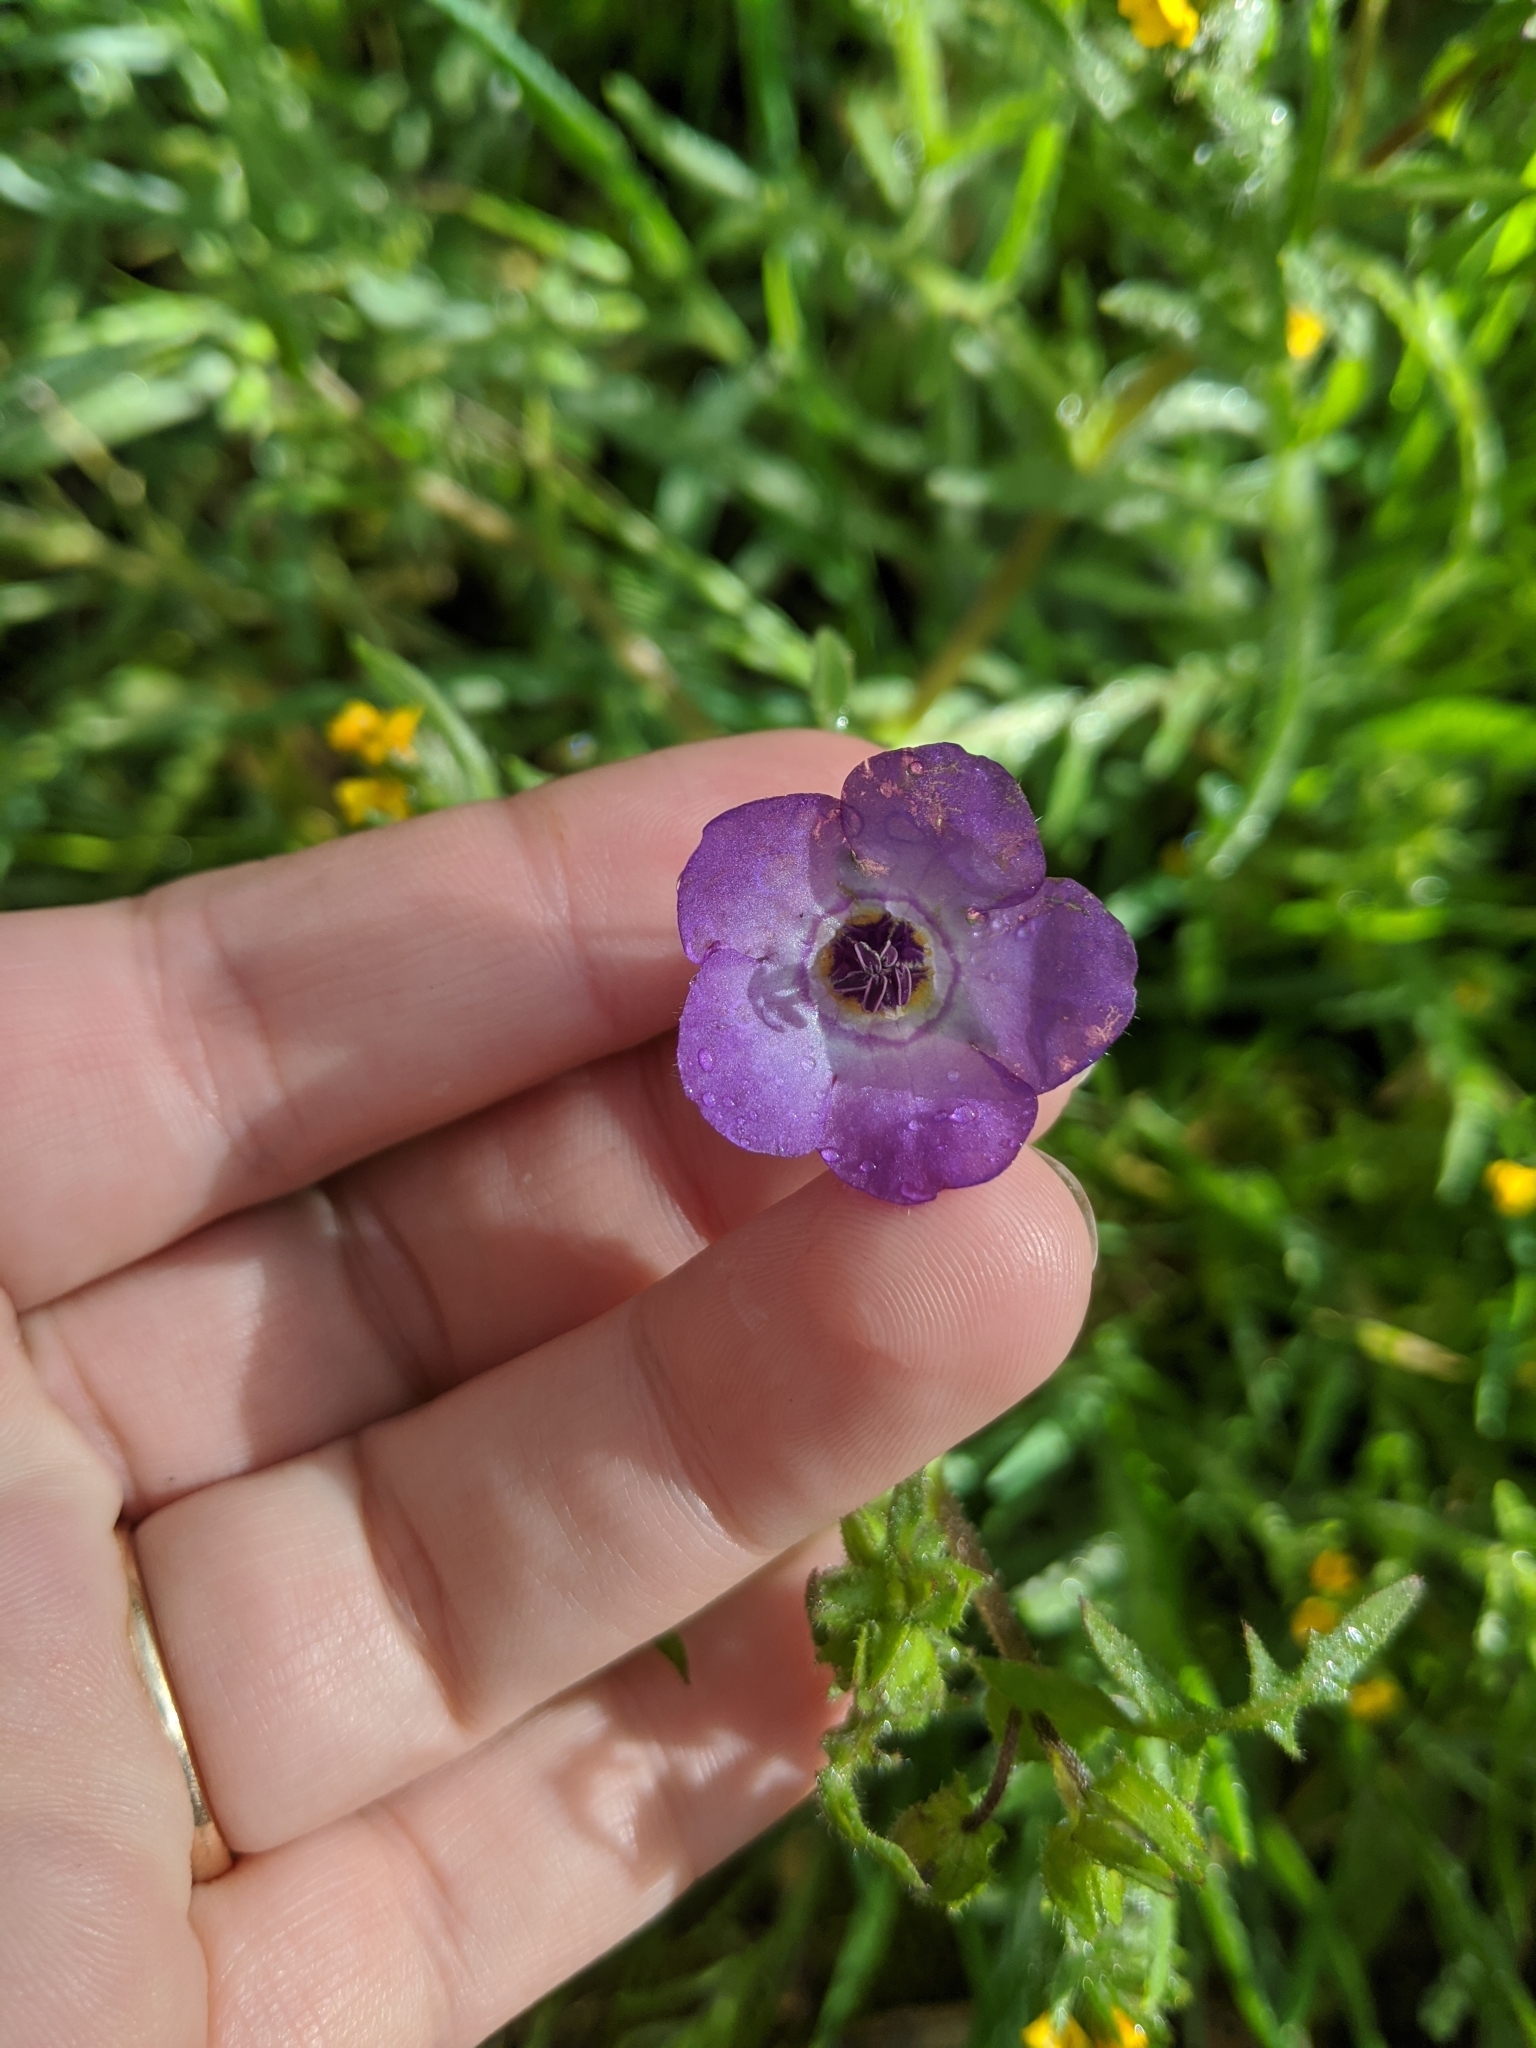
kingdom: Plantae
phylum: Tracheophyta
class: Magnoliopsida
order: Boraginales
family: Hydrophyllaceae
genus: Pholistoma
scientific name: Pholistoma auritum
